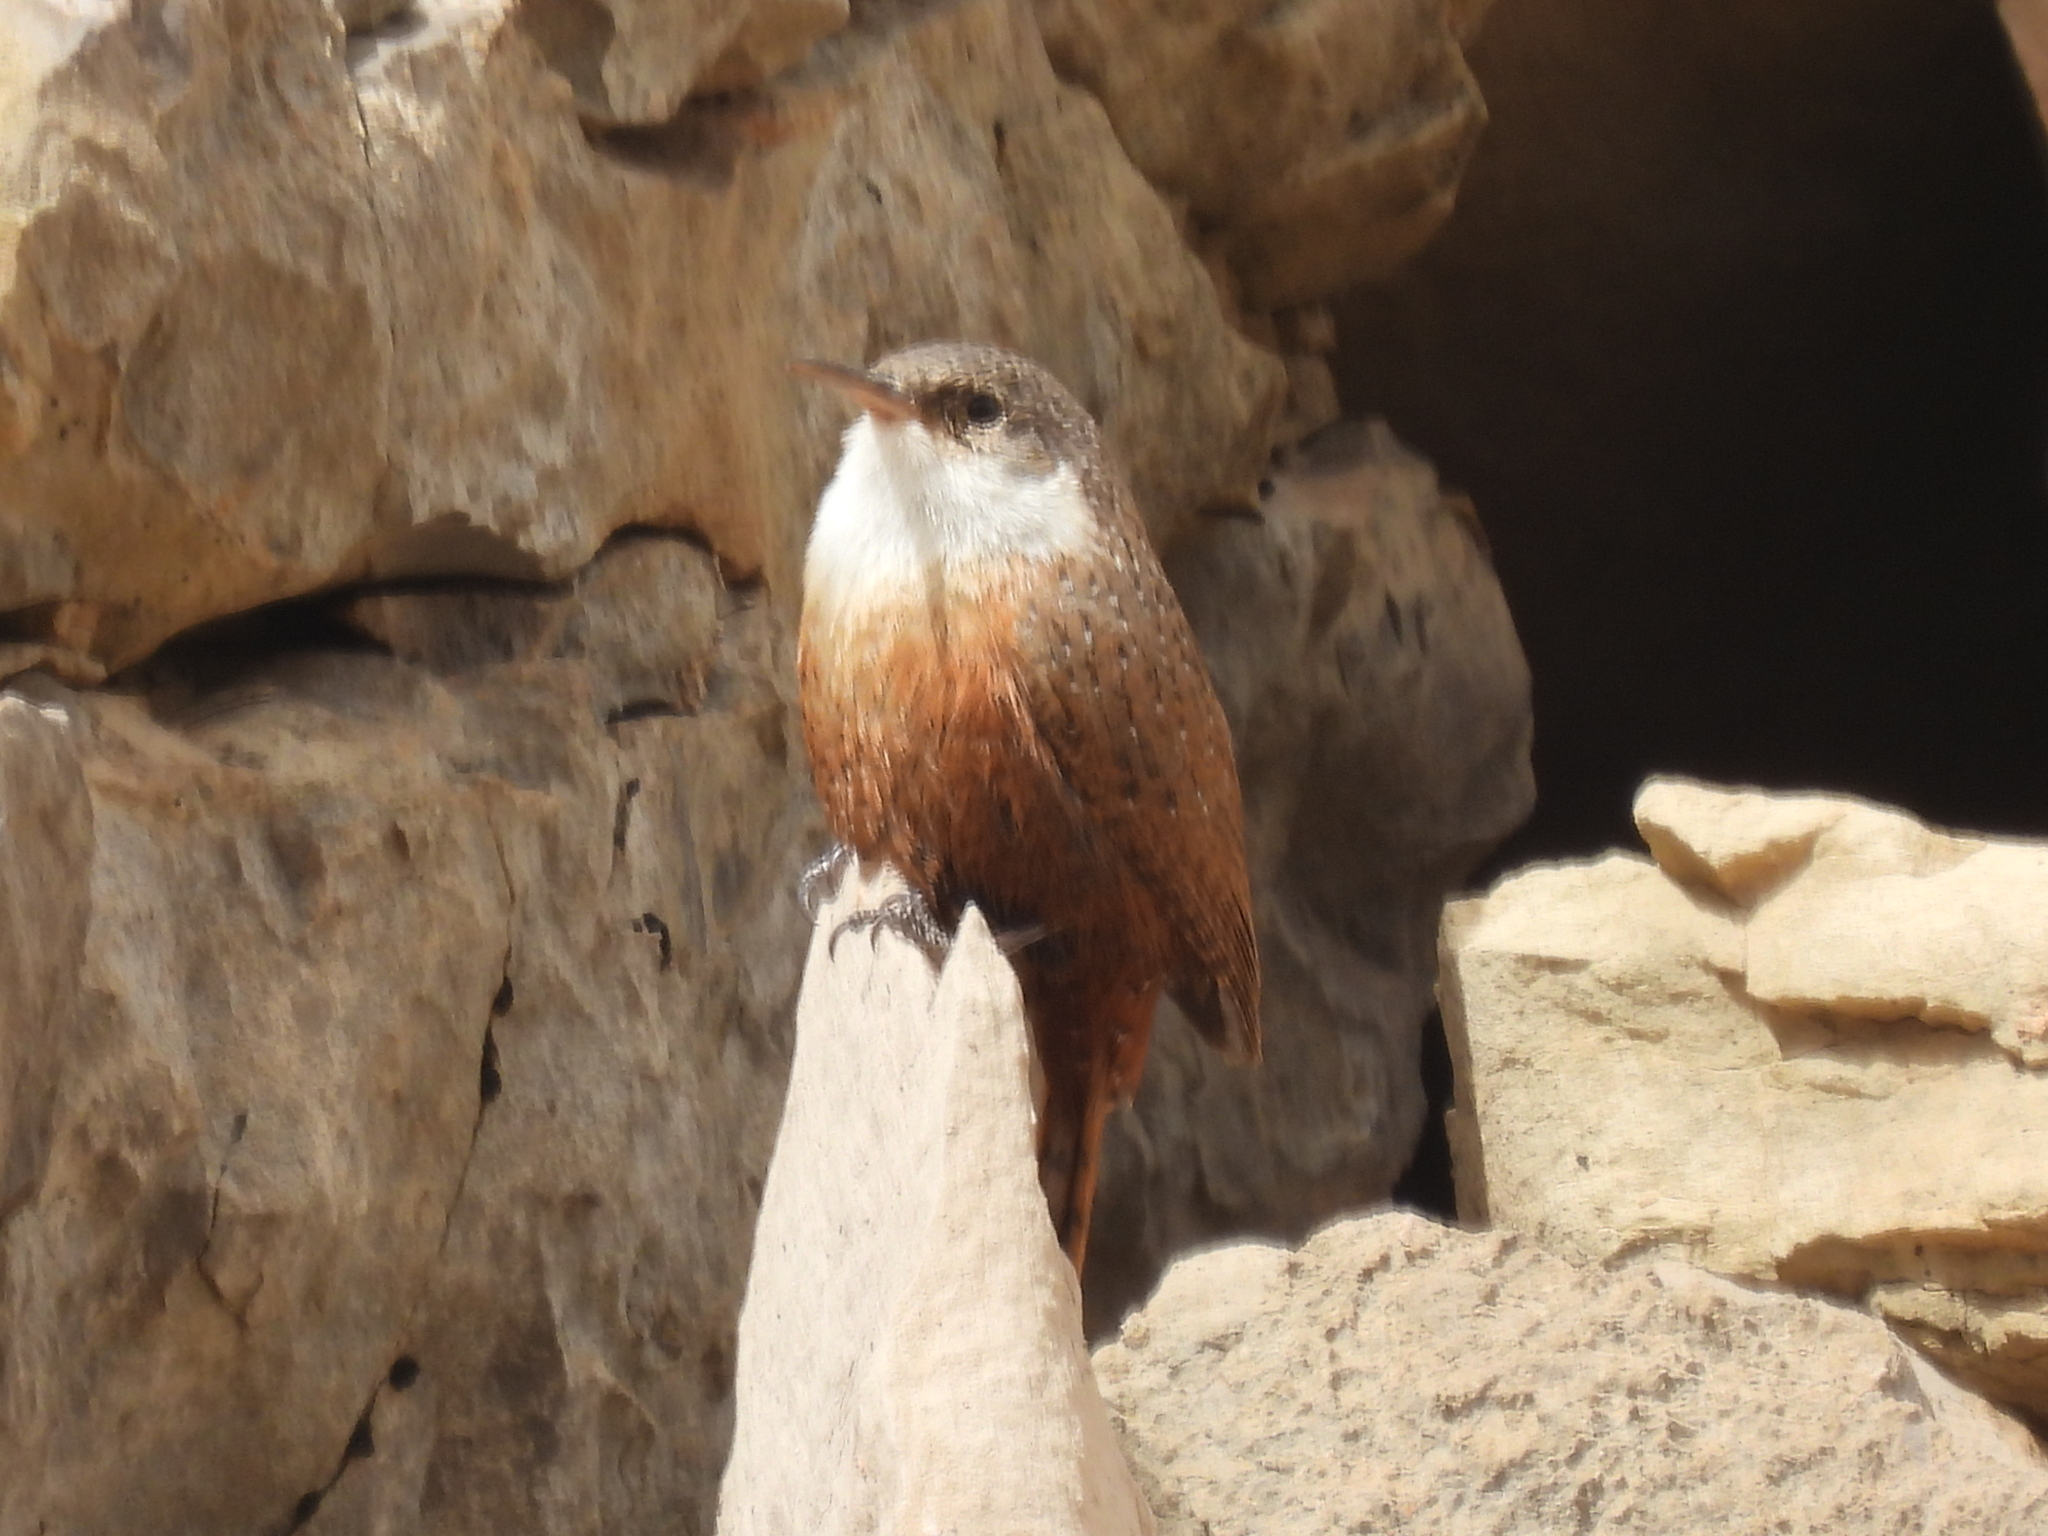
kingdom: Animalia
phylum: Chordata
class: Aves
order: Passeriformes
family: Troglodytidae
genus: Catherpes
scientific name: Catherpes mexicanus
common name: Canyon wren
